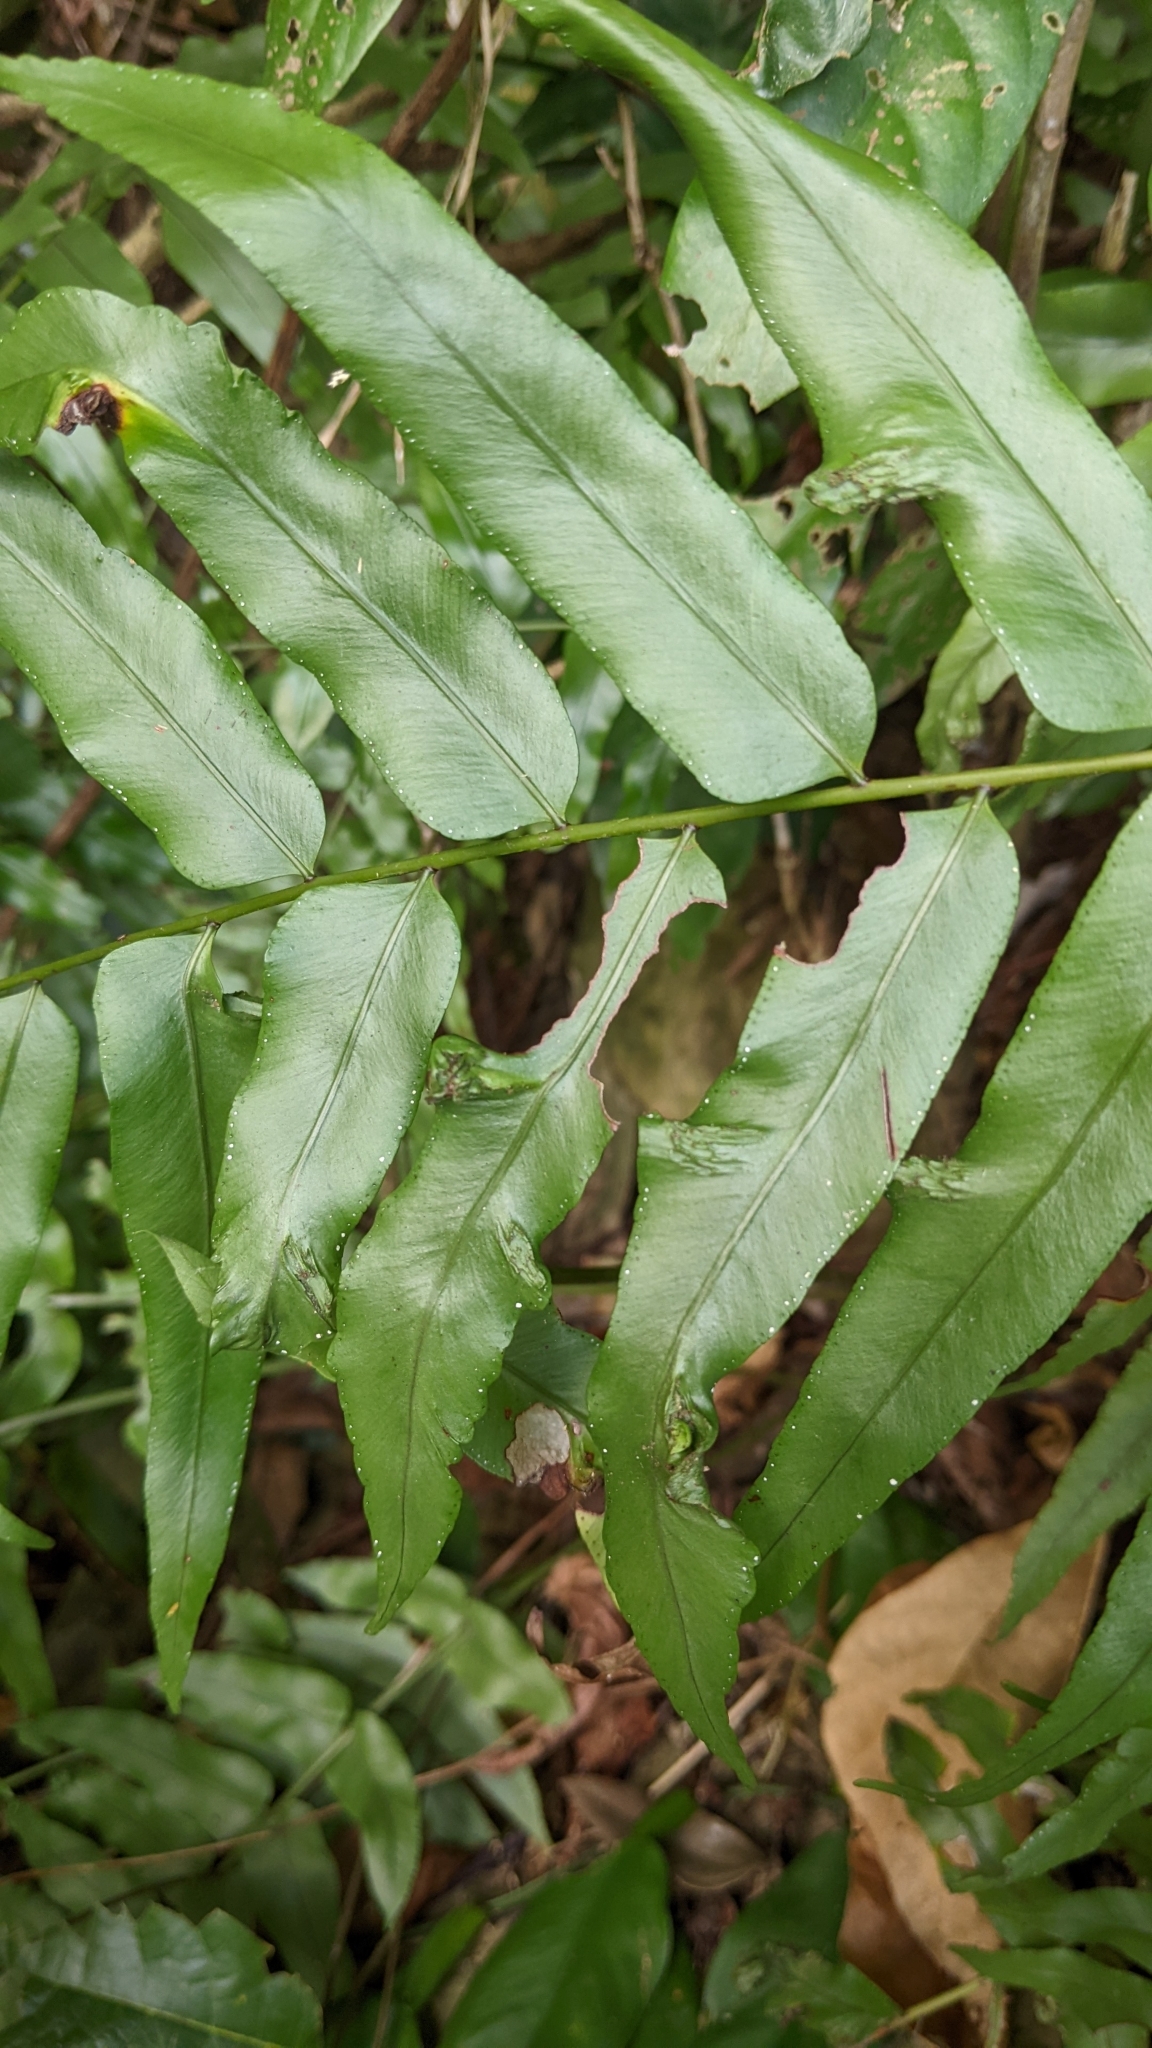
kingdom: Plantae
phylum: Tracheophyta
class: Polypodiopsida
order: Polypodiales
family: Nephrolepidaceae
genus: Nephrolepis
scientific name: Nephrolepis biserrata
